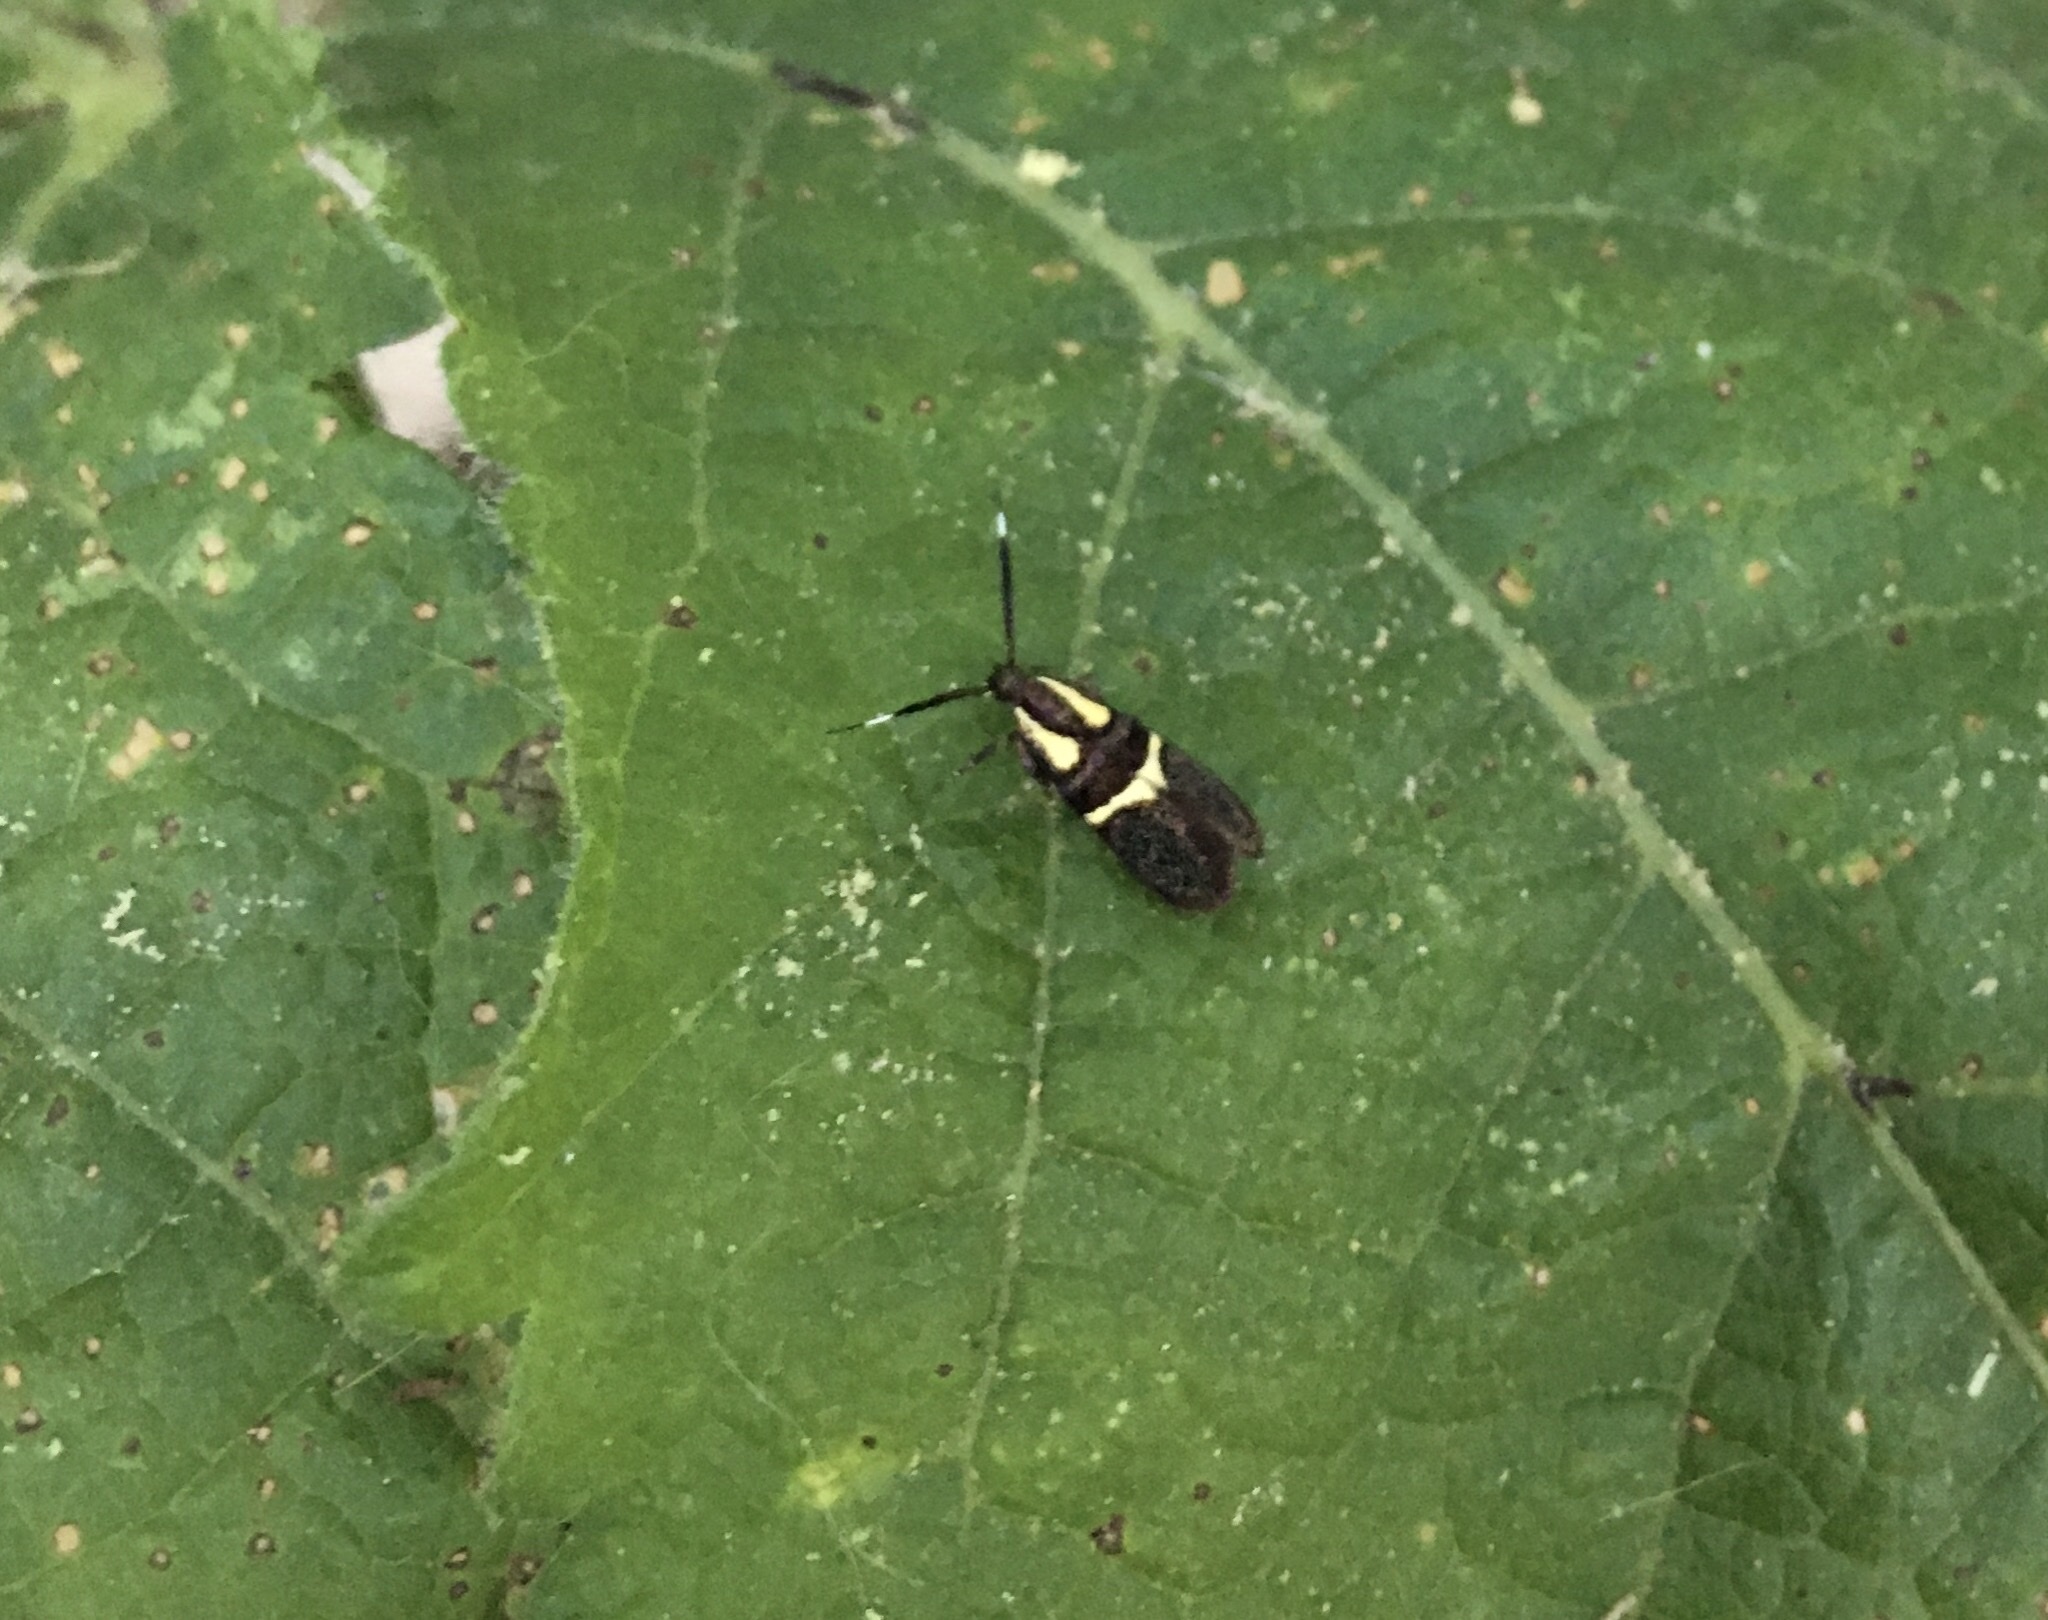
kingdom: Animalia
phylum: Arthropoda
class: Insecta
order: Lepidoptera
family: Oecophoridae
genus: Dafa
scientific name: Dafa oliviella
